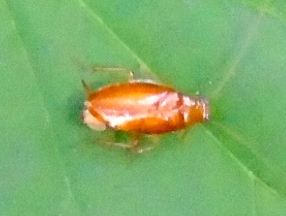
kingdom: Animalia
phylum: Arthropoda
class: Insecta
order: Blattodea
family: Anaplectidae
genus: Anaplecta
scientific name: Anaplecta saussurei
